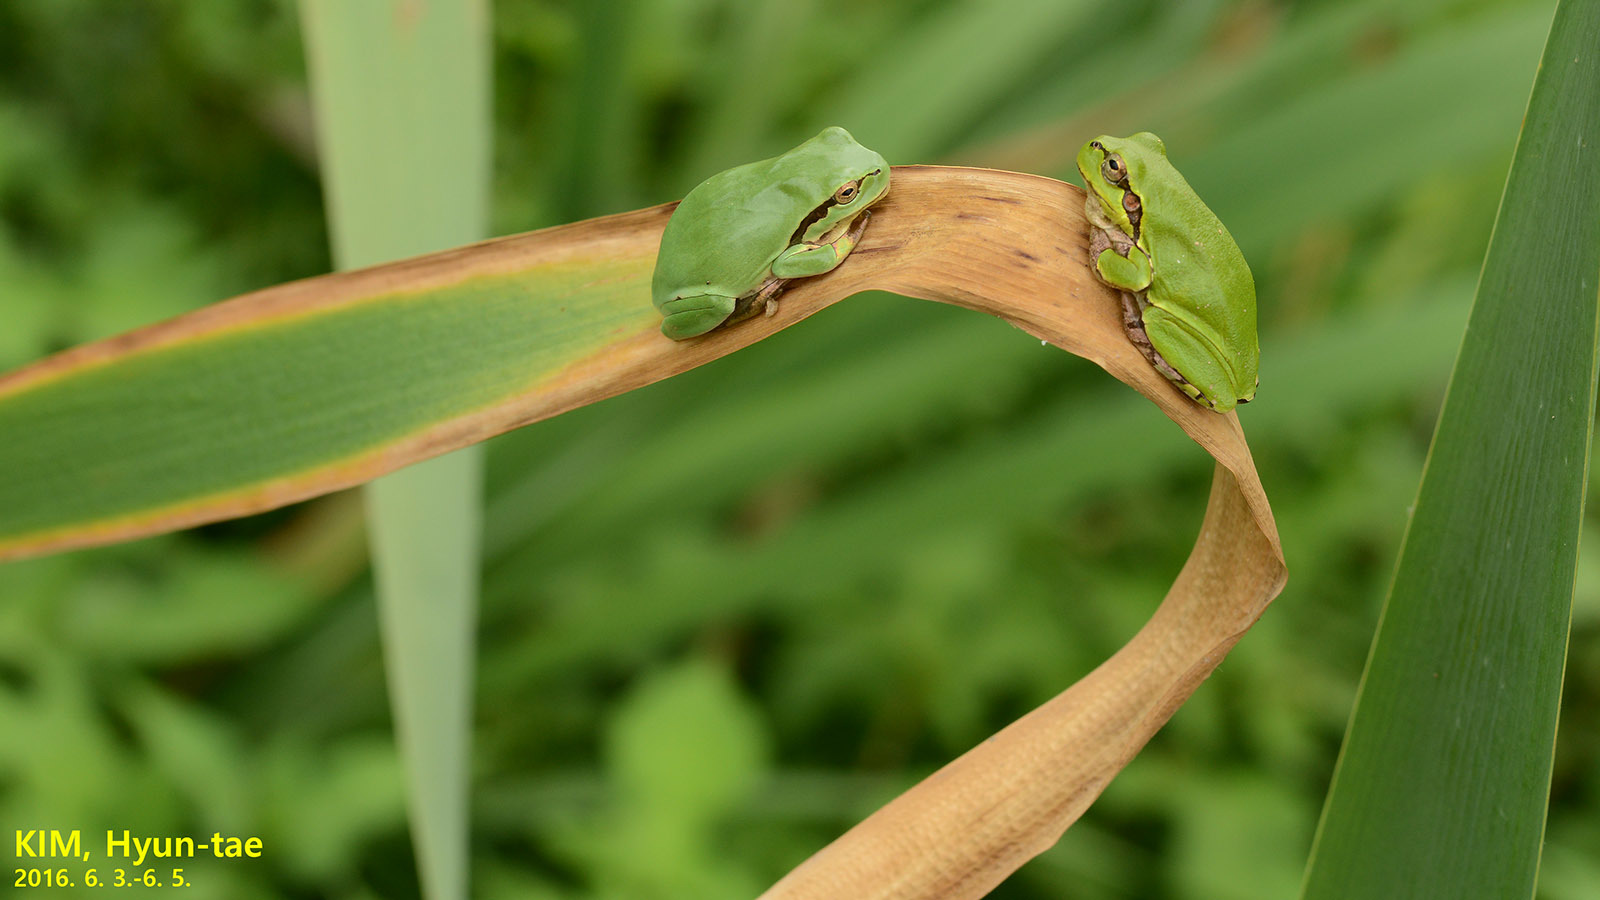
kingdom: Animalia
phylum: Chordata
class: Amphibia
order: Anura
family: Hylidae
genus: Dryophytes
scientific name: Dryophytes immaculatus
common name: North china treefrog
